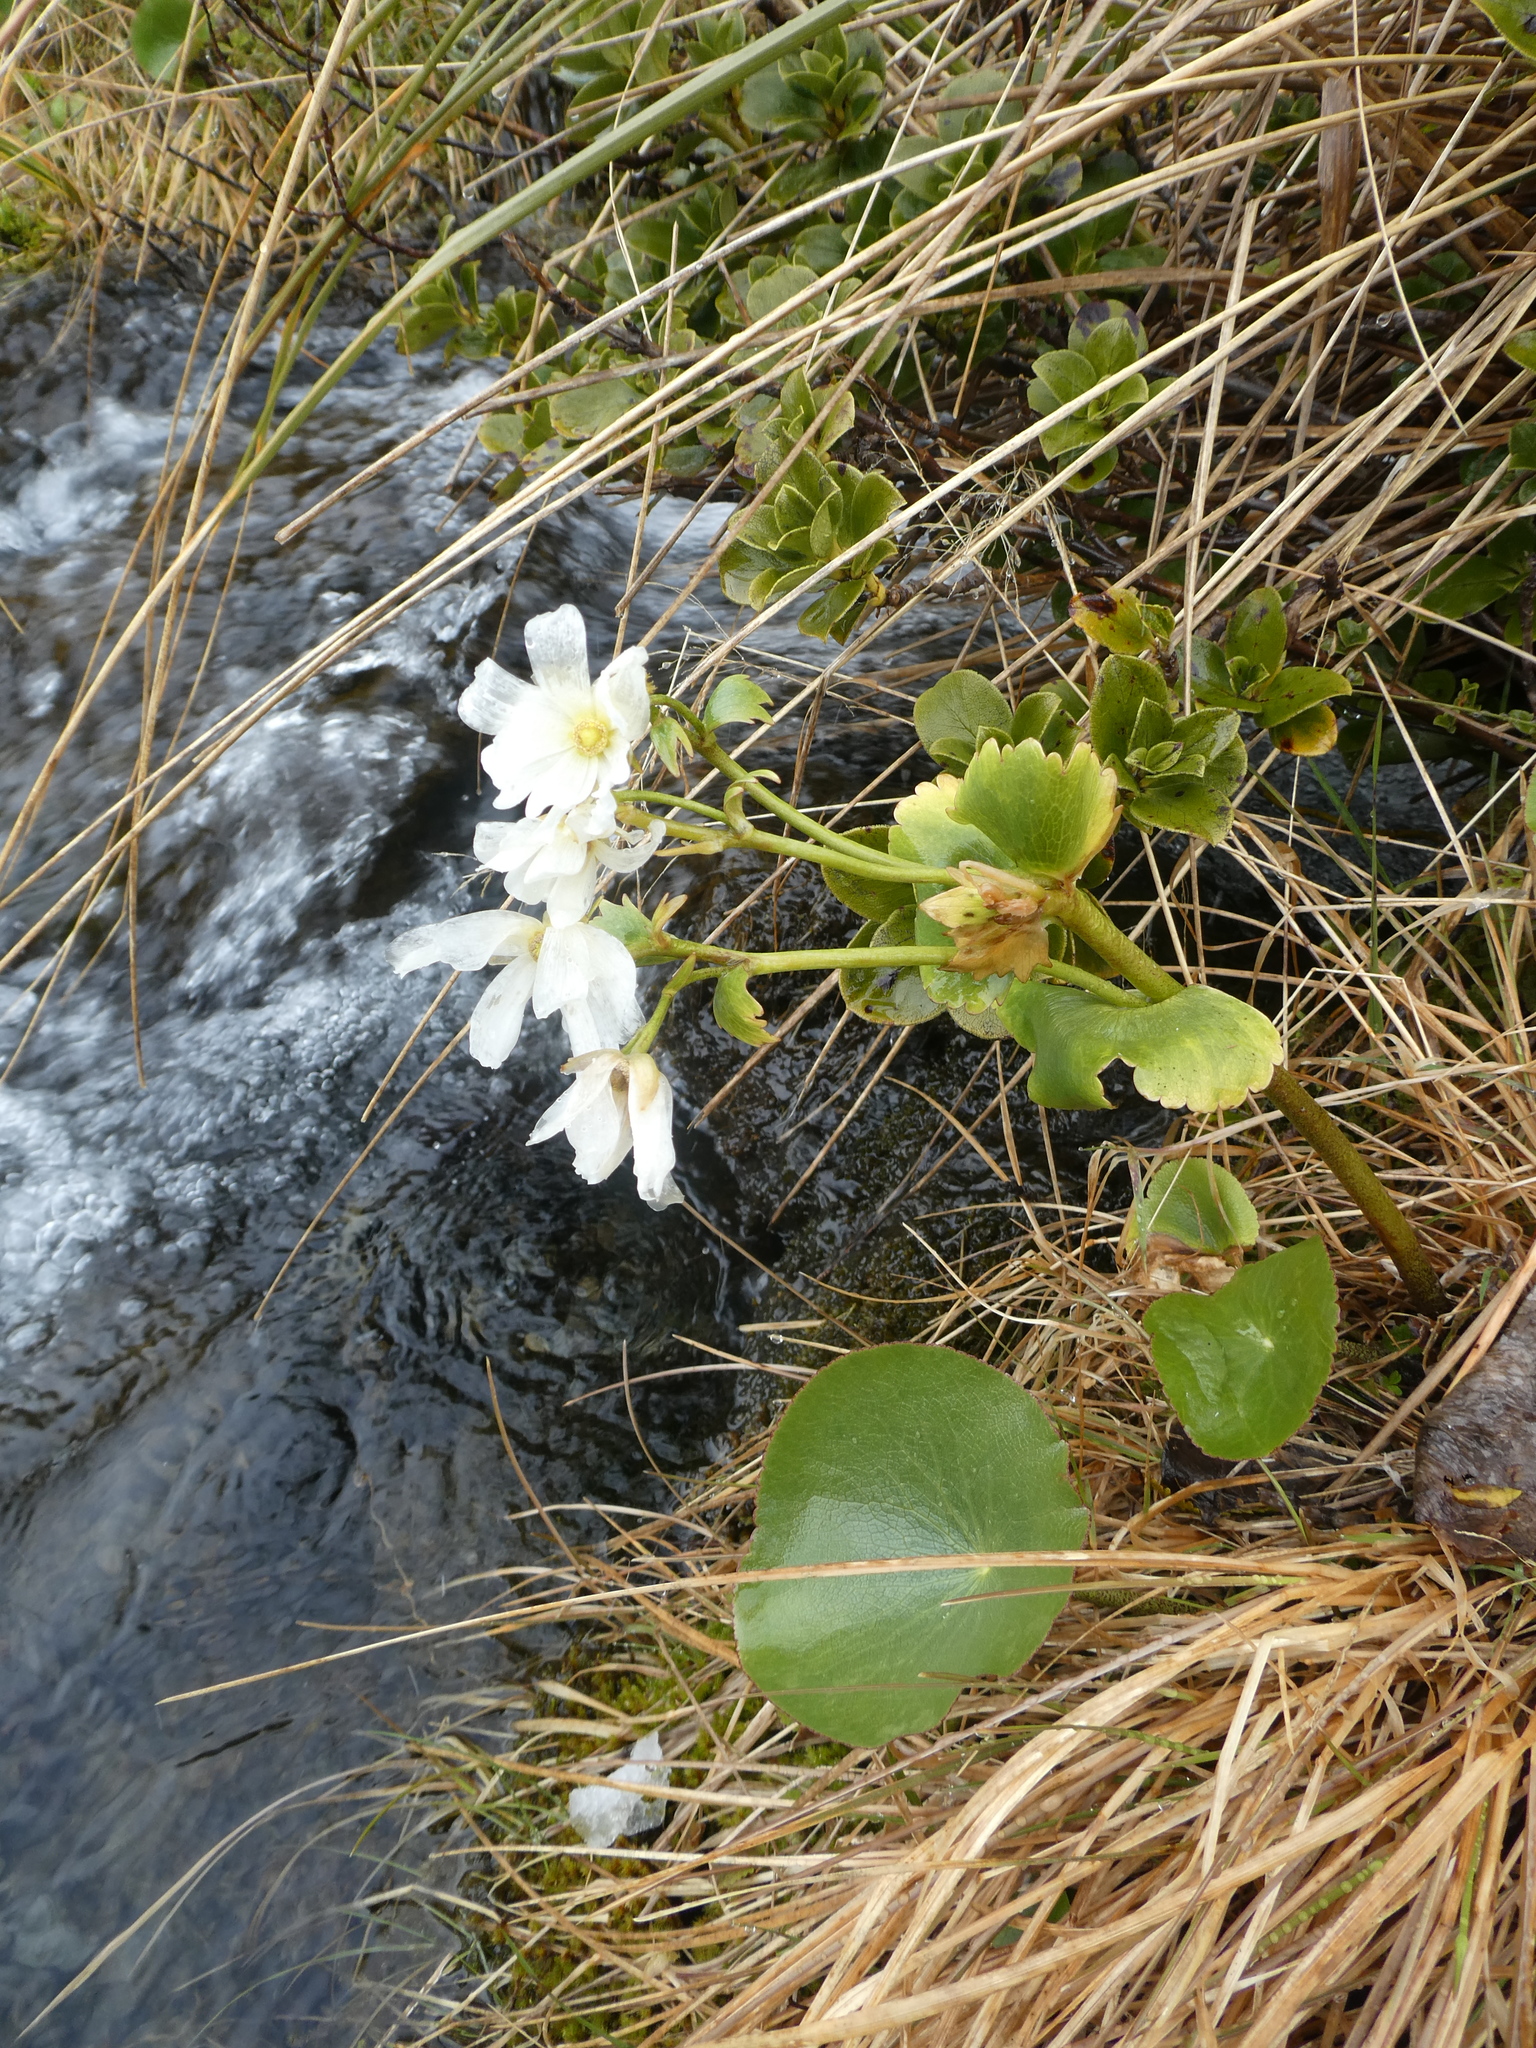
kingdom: Plantae
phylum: Tracheophyta
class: Magnoliopsida
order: Ranunculales
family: Ranunculaceae
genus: Ranunculus
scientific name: Ranunculus lyallii
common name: Mountain-lily
